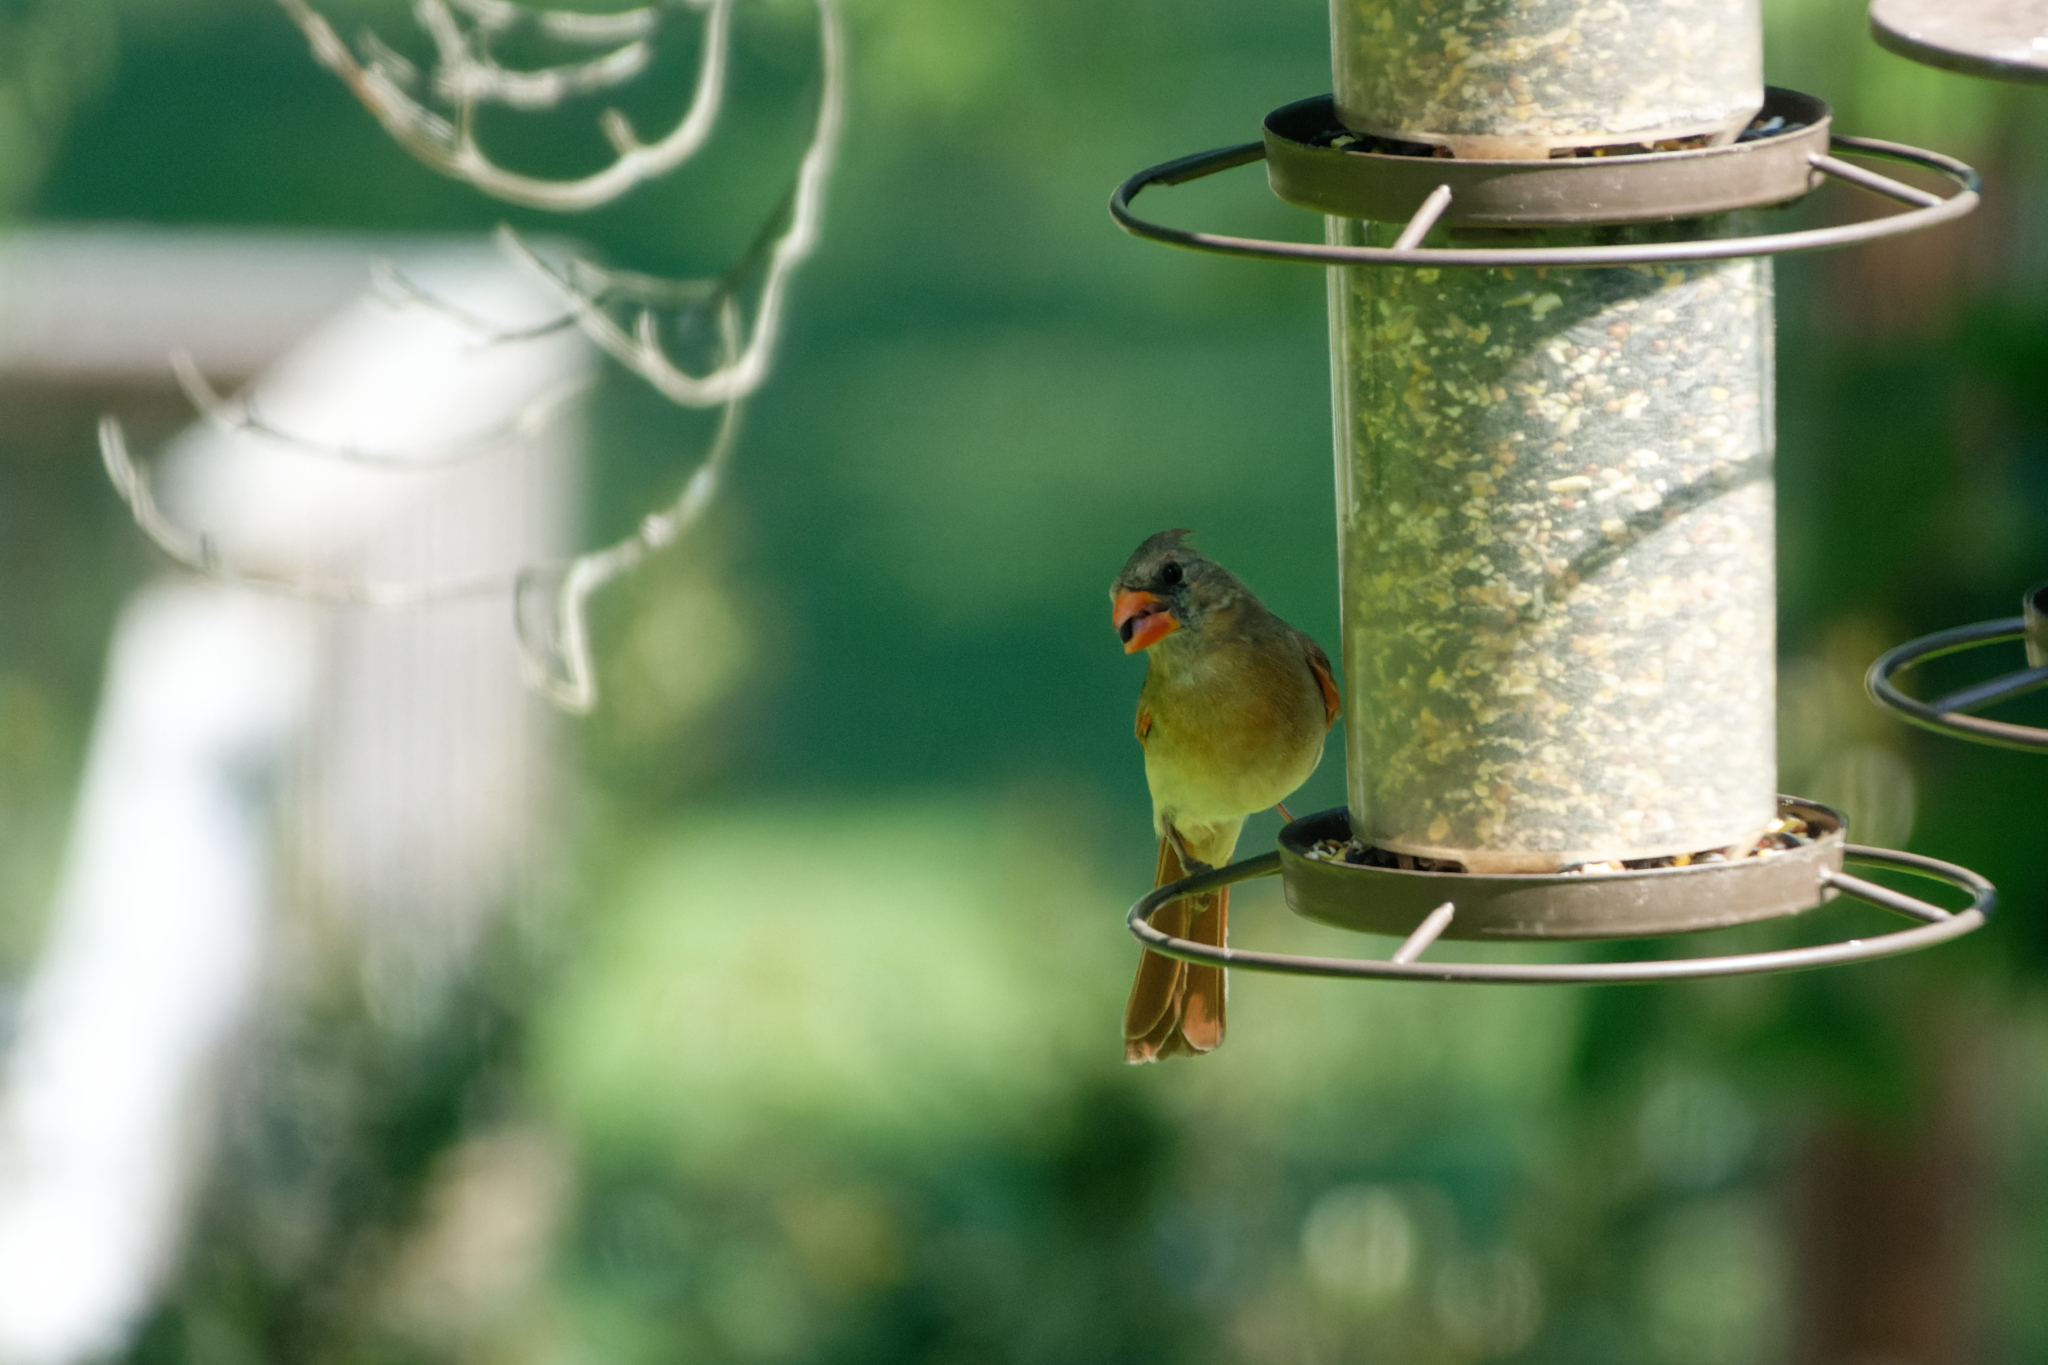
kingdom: Animalia
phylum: Chordata
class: Aves
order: Passeriformes
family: Cardinalidae
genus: Cardinalis
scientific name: Cardinalis cardinalis
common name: Northern cardinal
